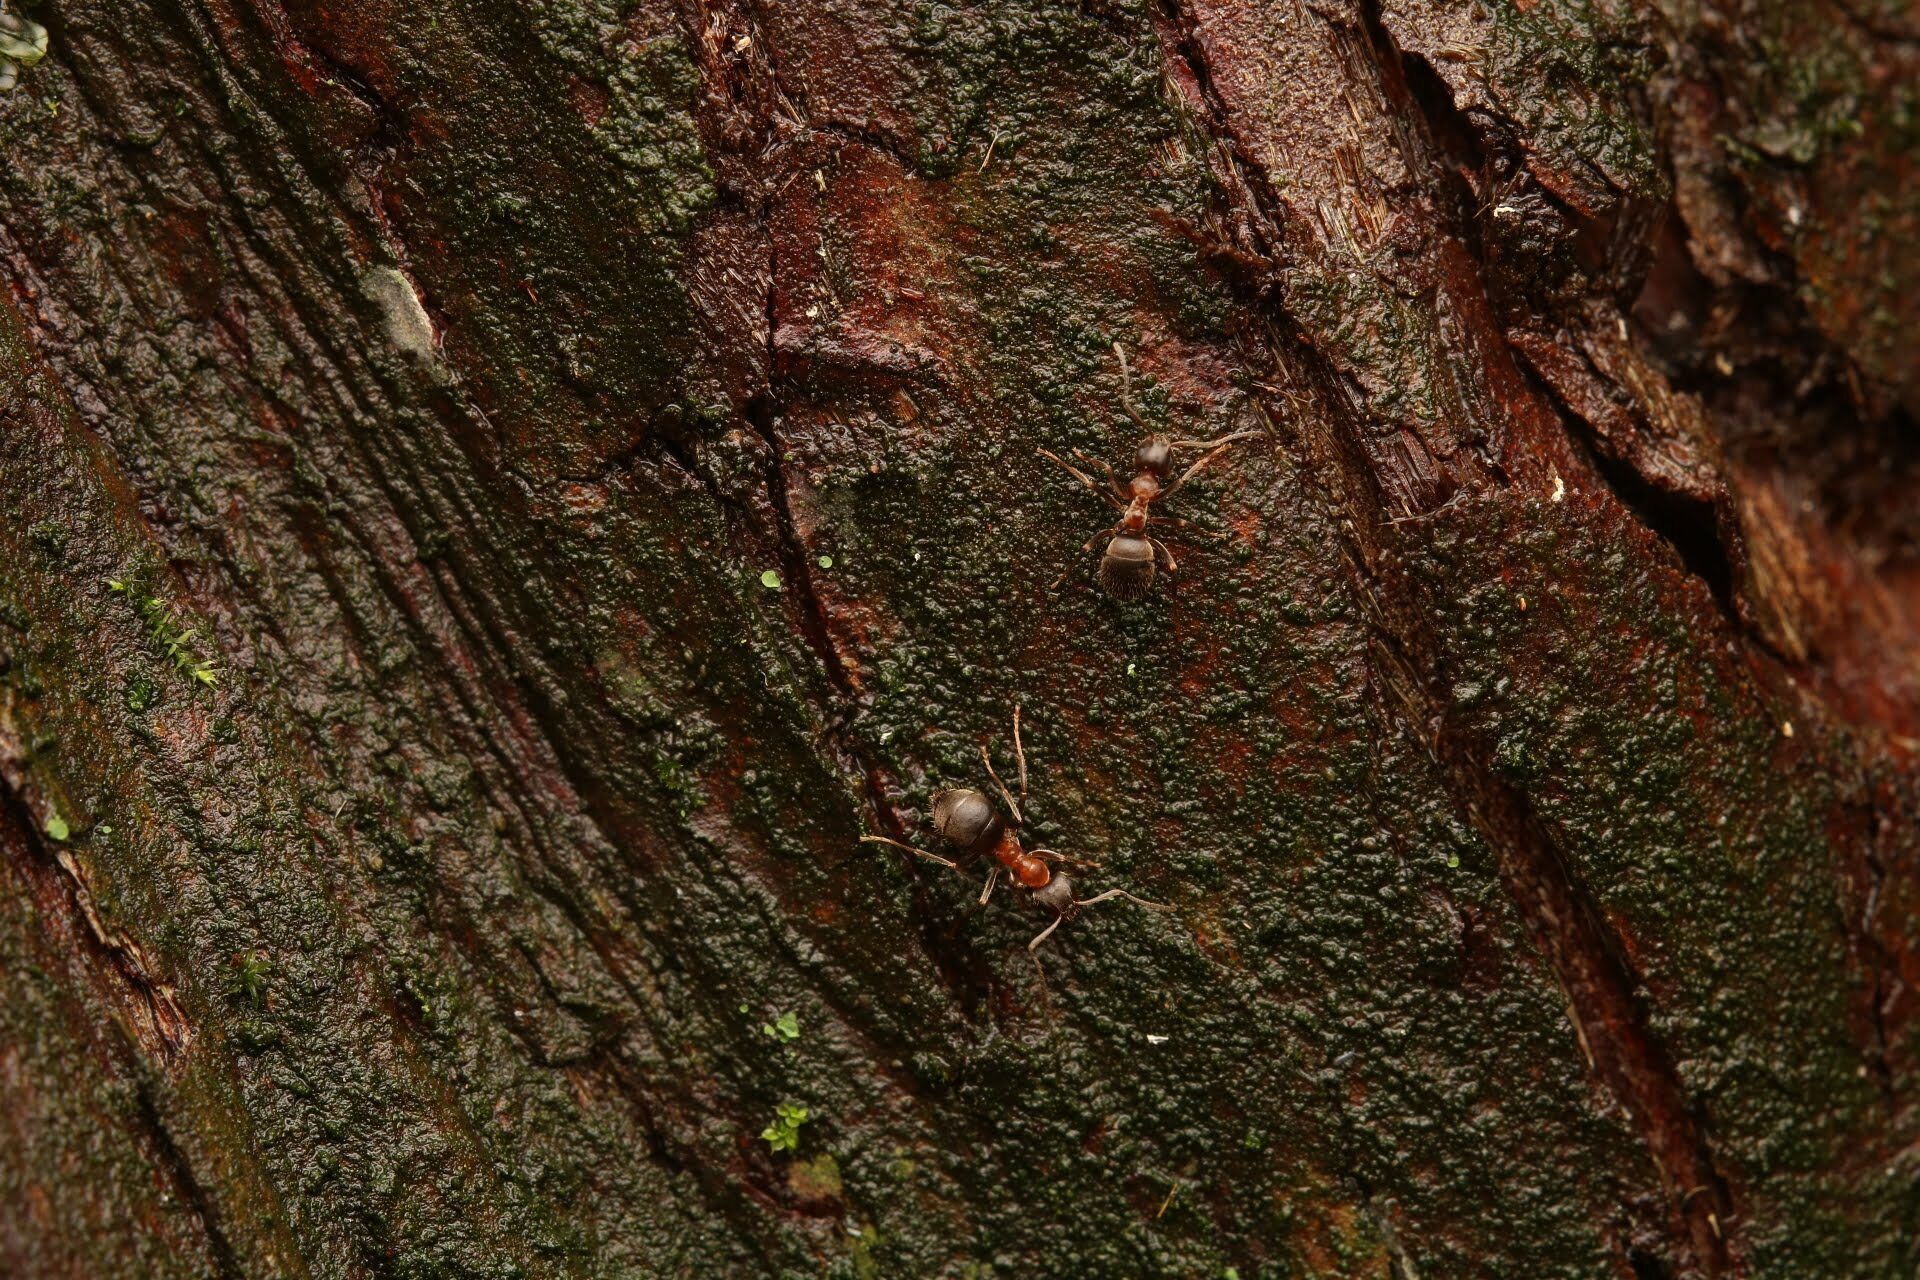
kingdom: Animalia
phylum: Arthropoda
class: Insecta
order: Hymenoptera
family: Formicidae
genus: Lasius
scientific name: Lasius emarginatus
